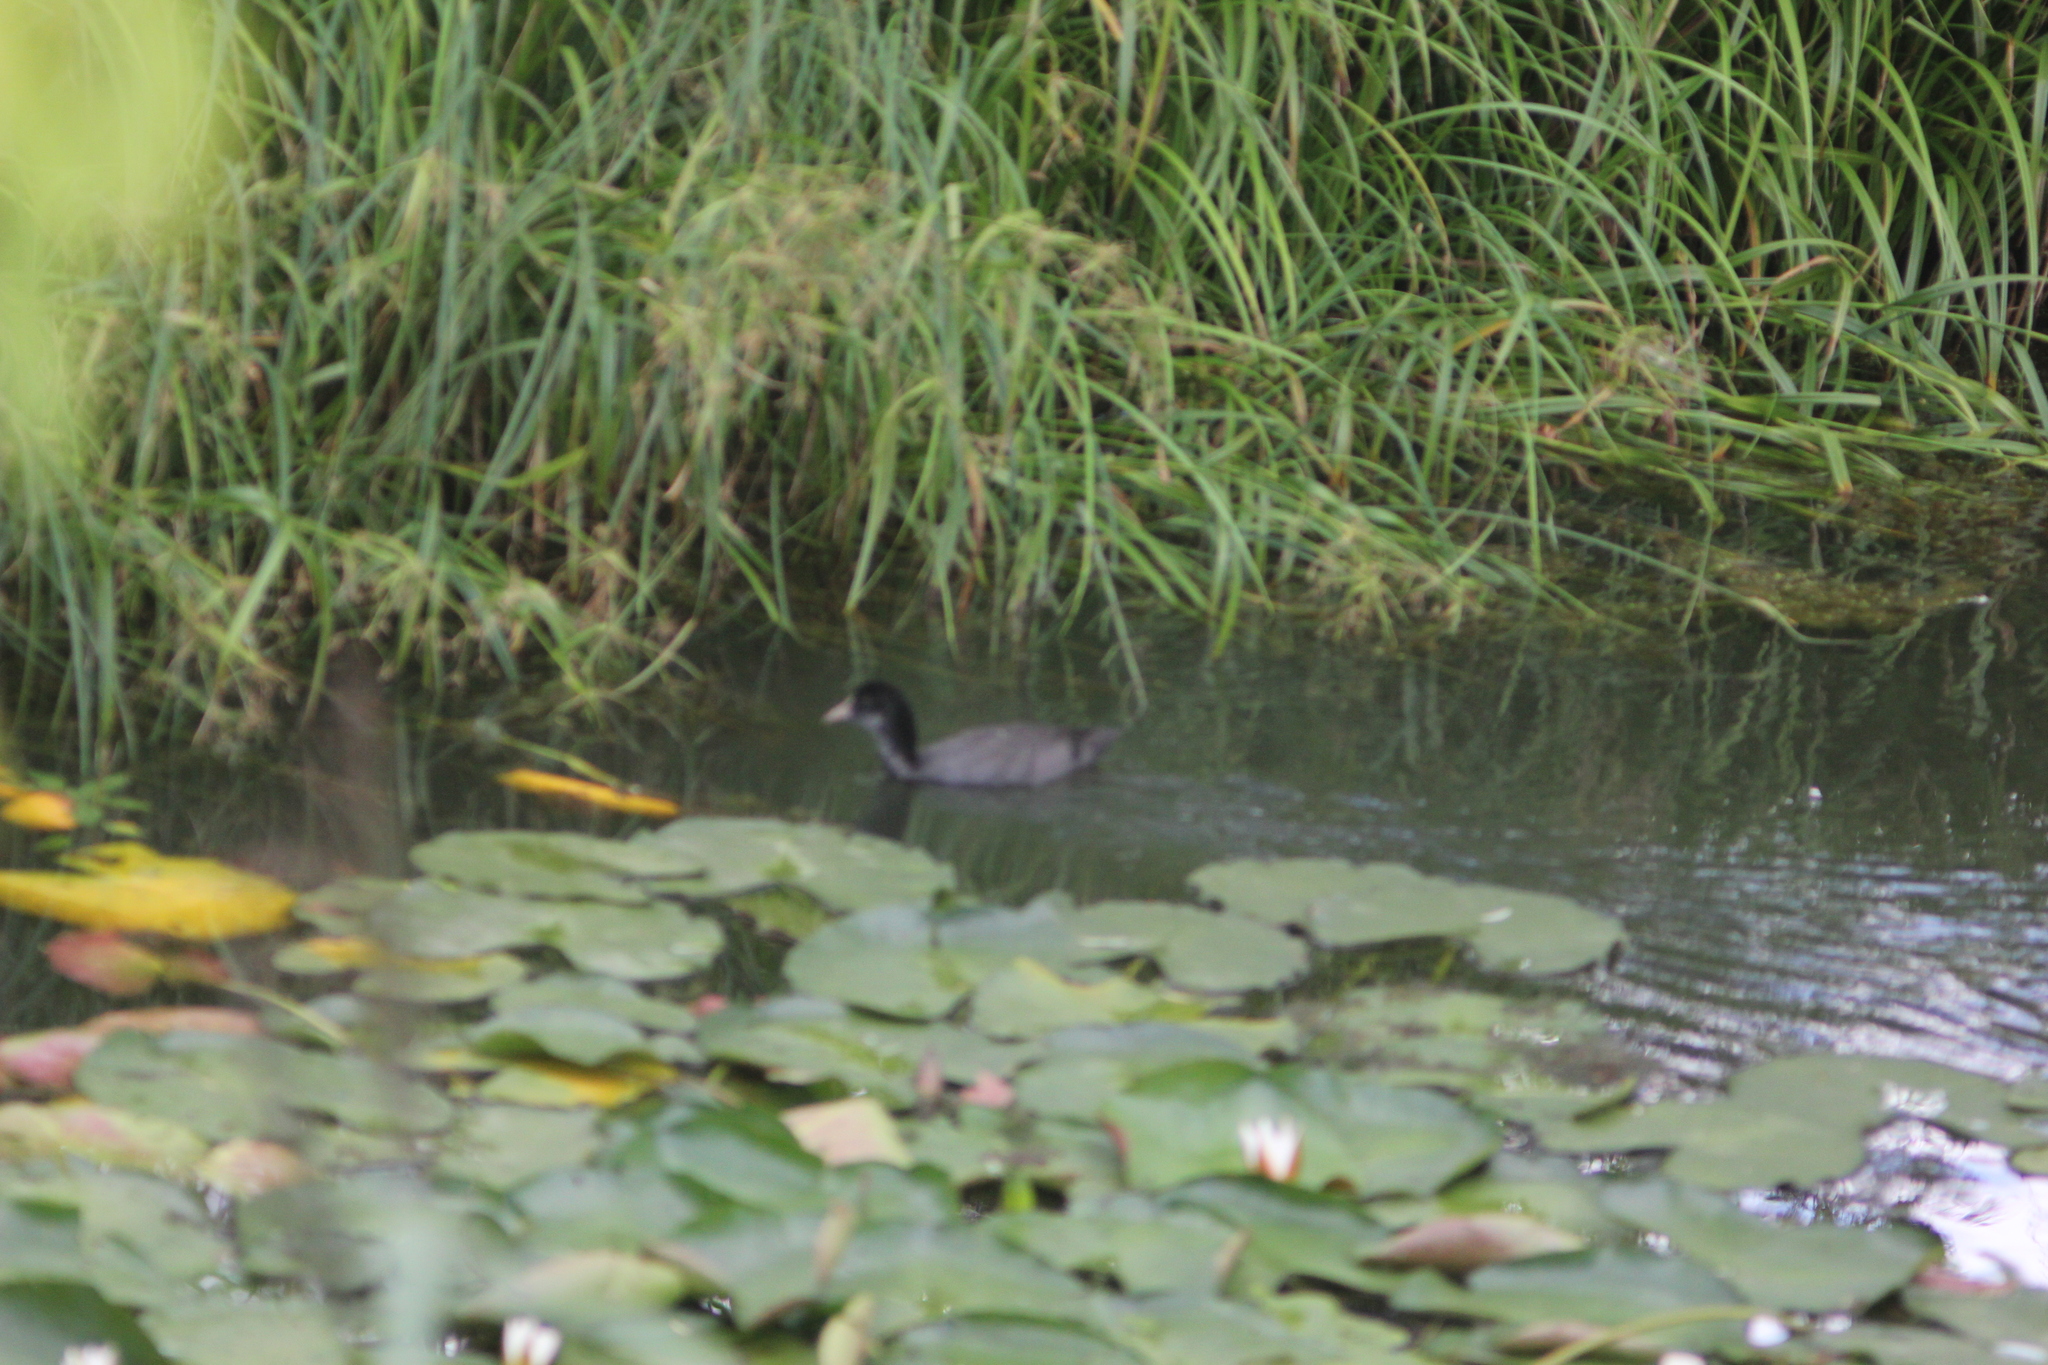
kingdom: Animalia
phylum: Chordata
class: Aves
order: Gruiformes
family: Rallidae
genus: Fulica
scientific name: Fulica atra
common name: Eurasian coot
